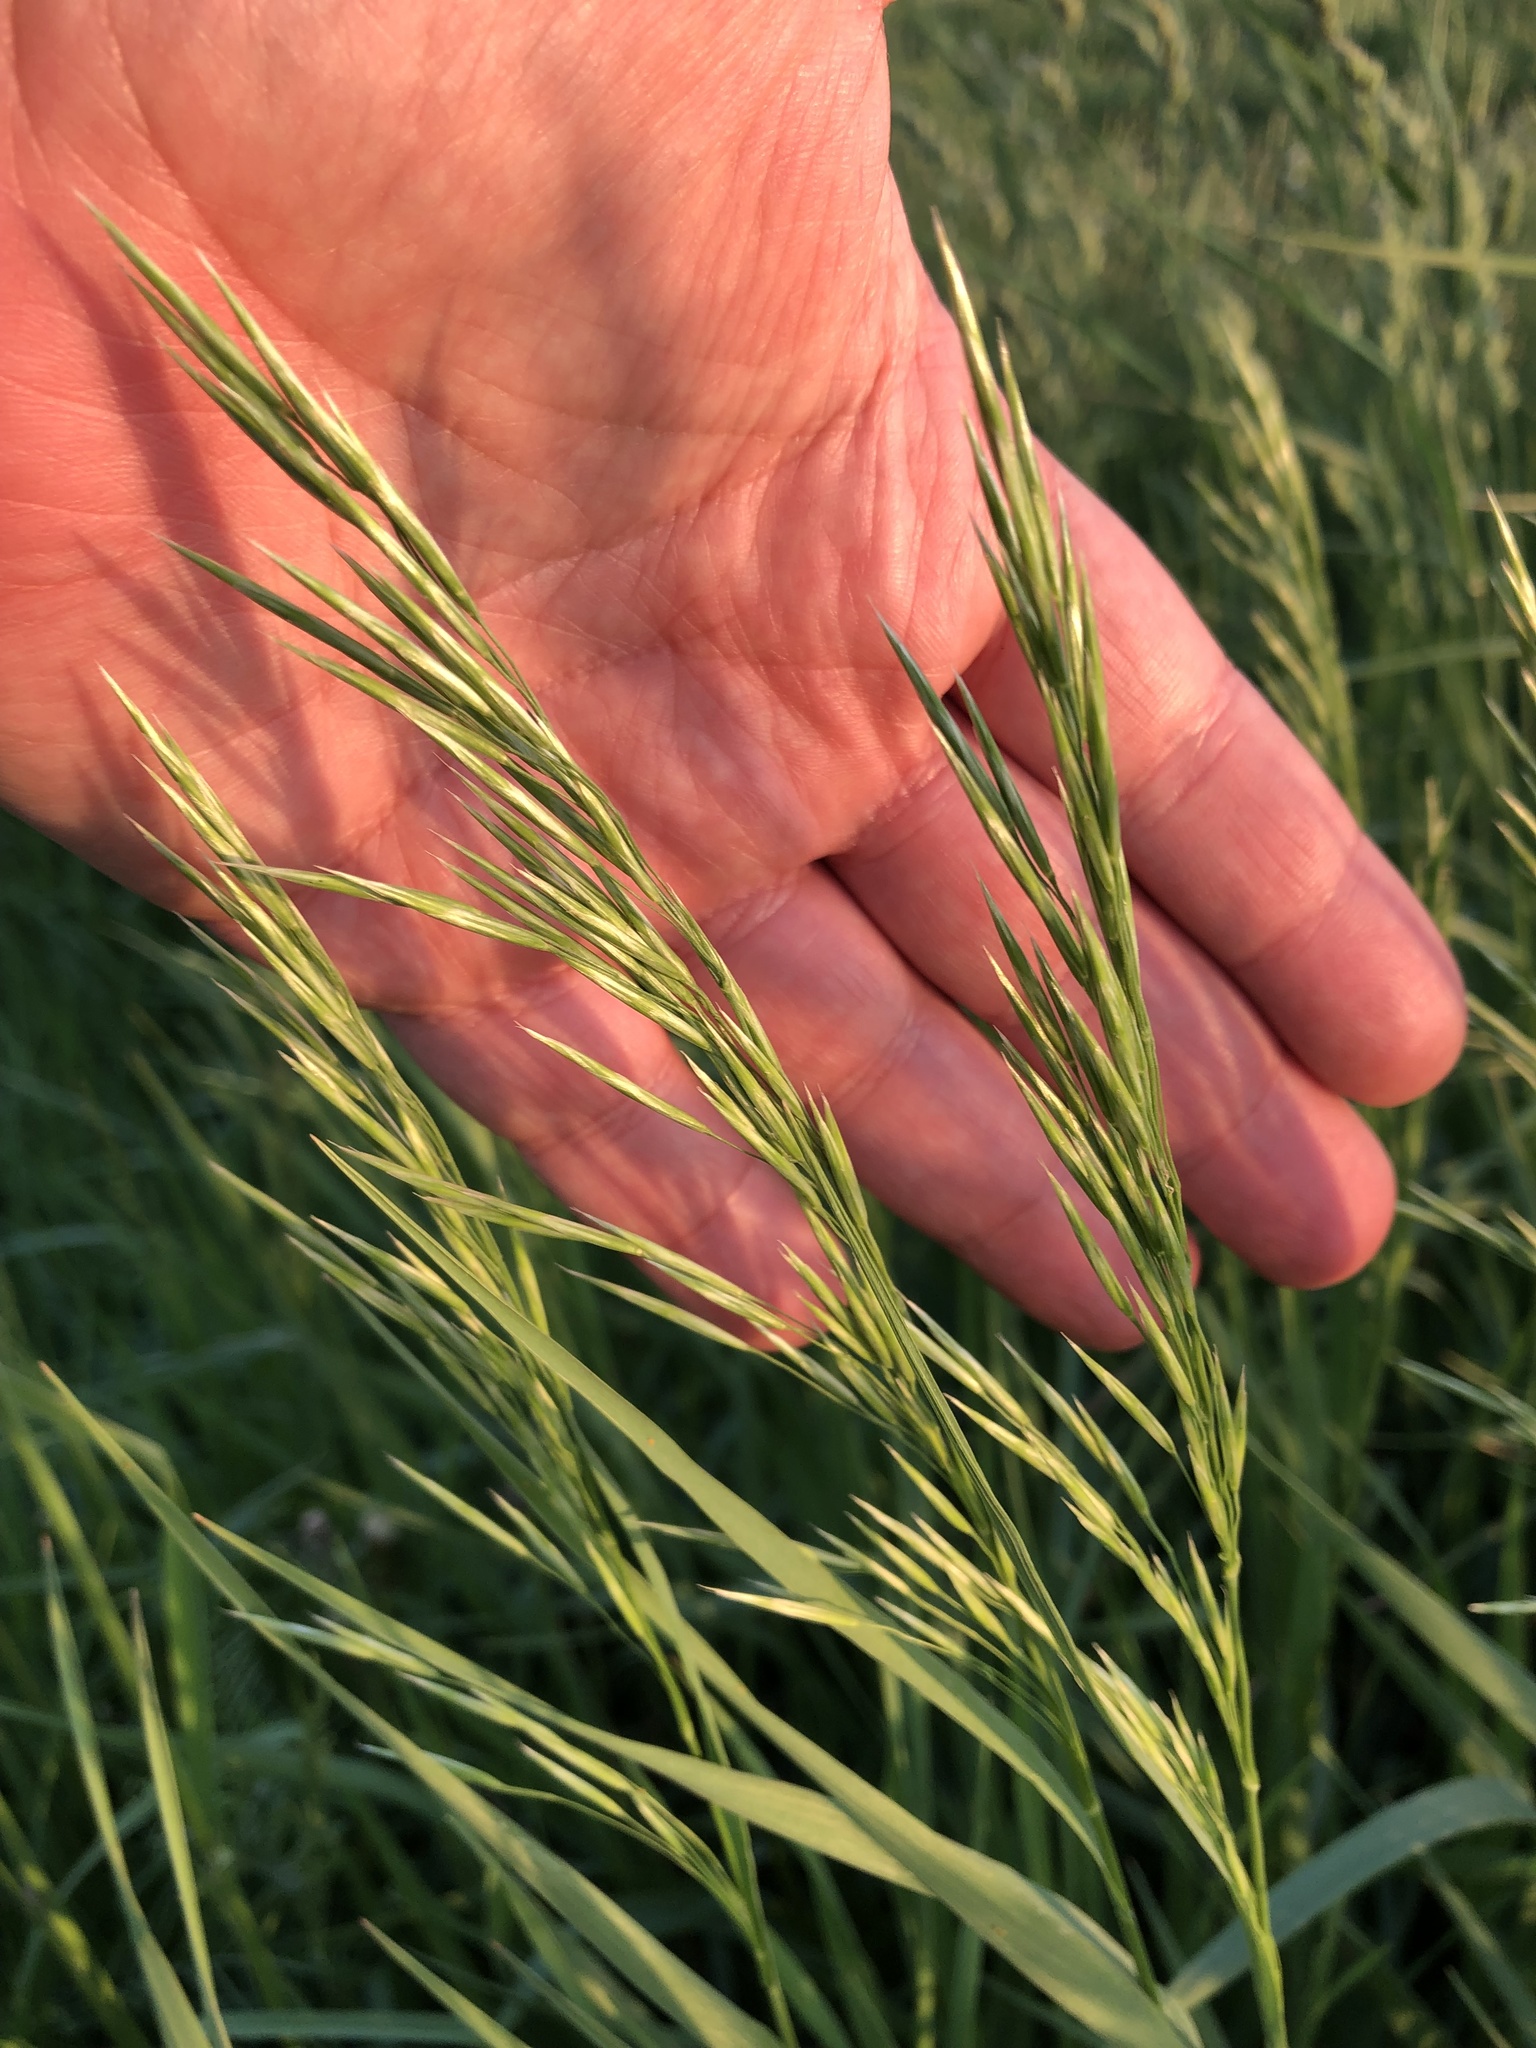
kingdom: Plantae
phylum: Tracheophyta
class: Liliopsida
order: Poales
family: Poaceae
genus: Bromus
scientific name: Bromus inermis
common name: Smooth brome
